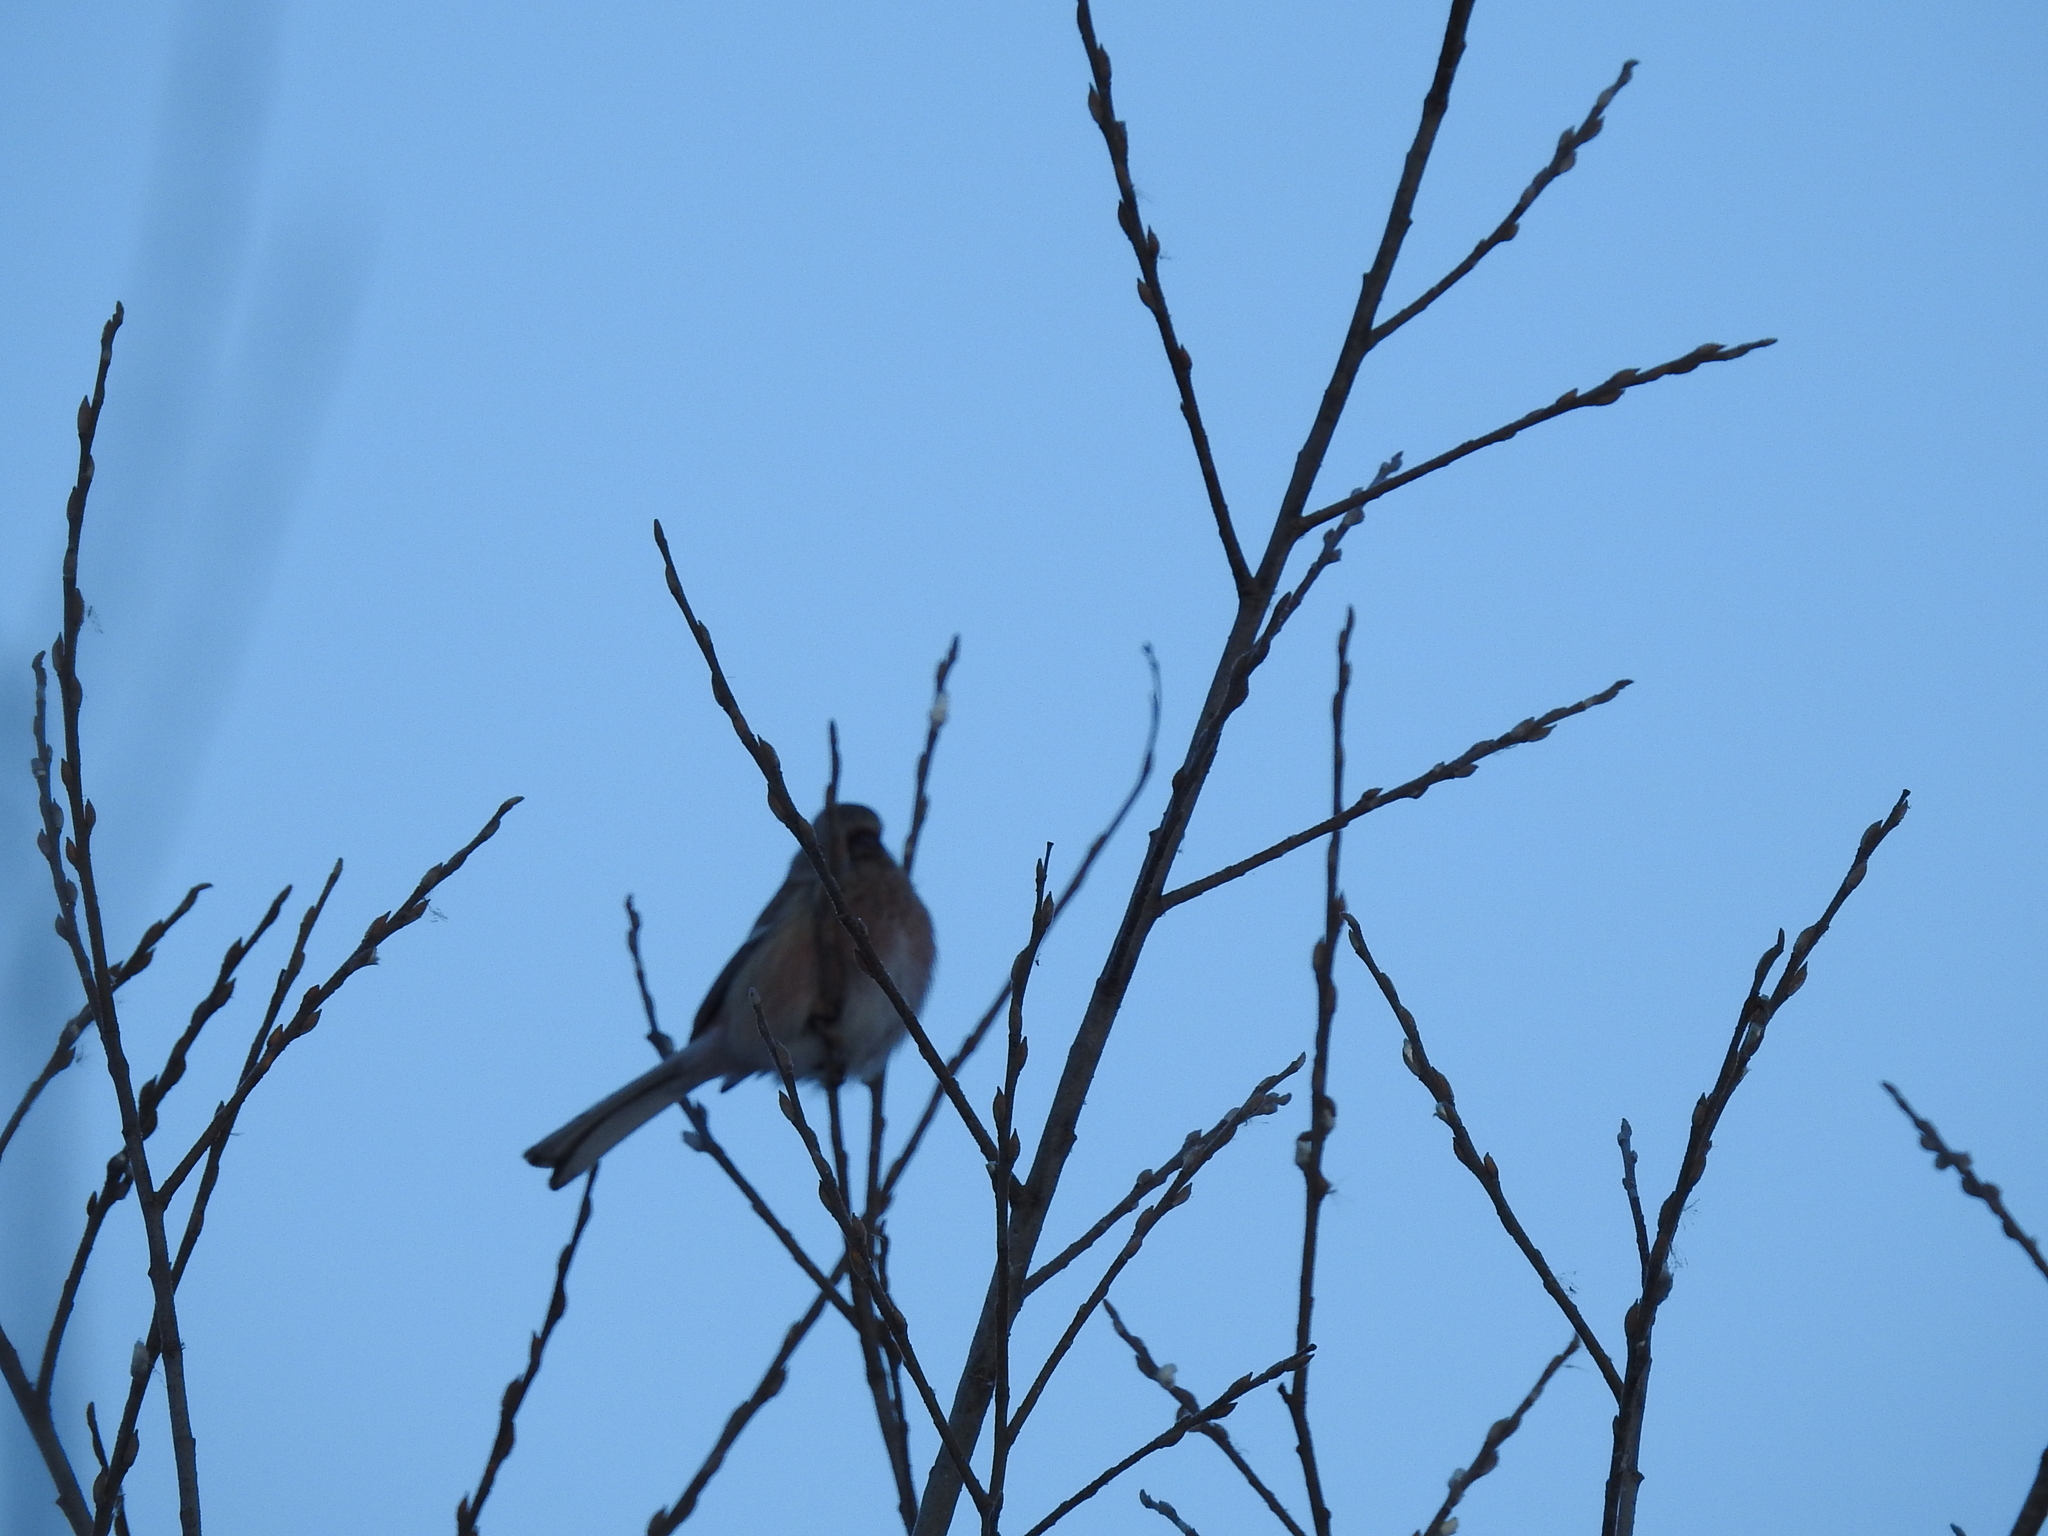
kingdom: Animalia
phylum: Chordata
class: Aves
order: Passeriformes
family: Fringillidae
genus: Carpodacus
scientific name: Carpodacus sibiricus
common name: Long-tailed rosefinch
